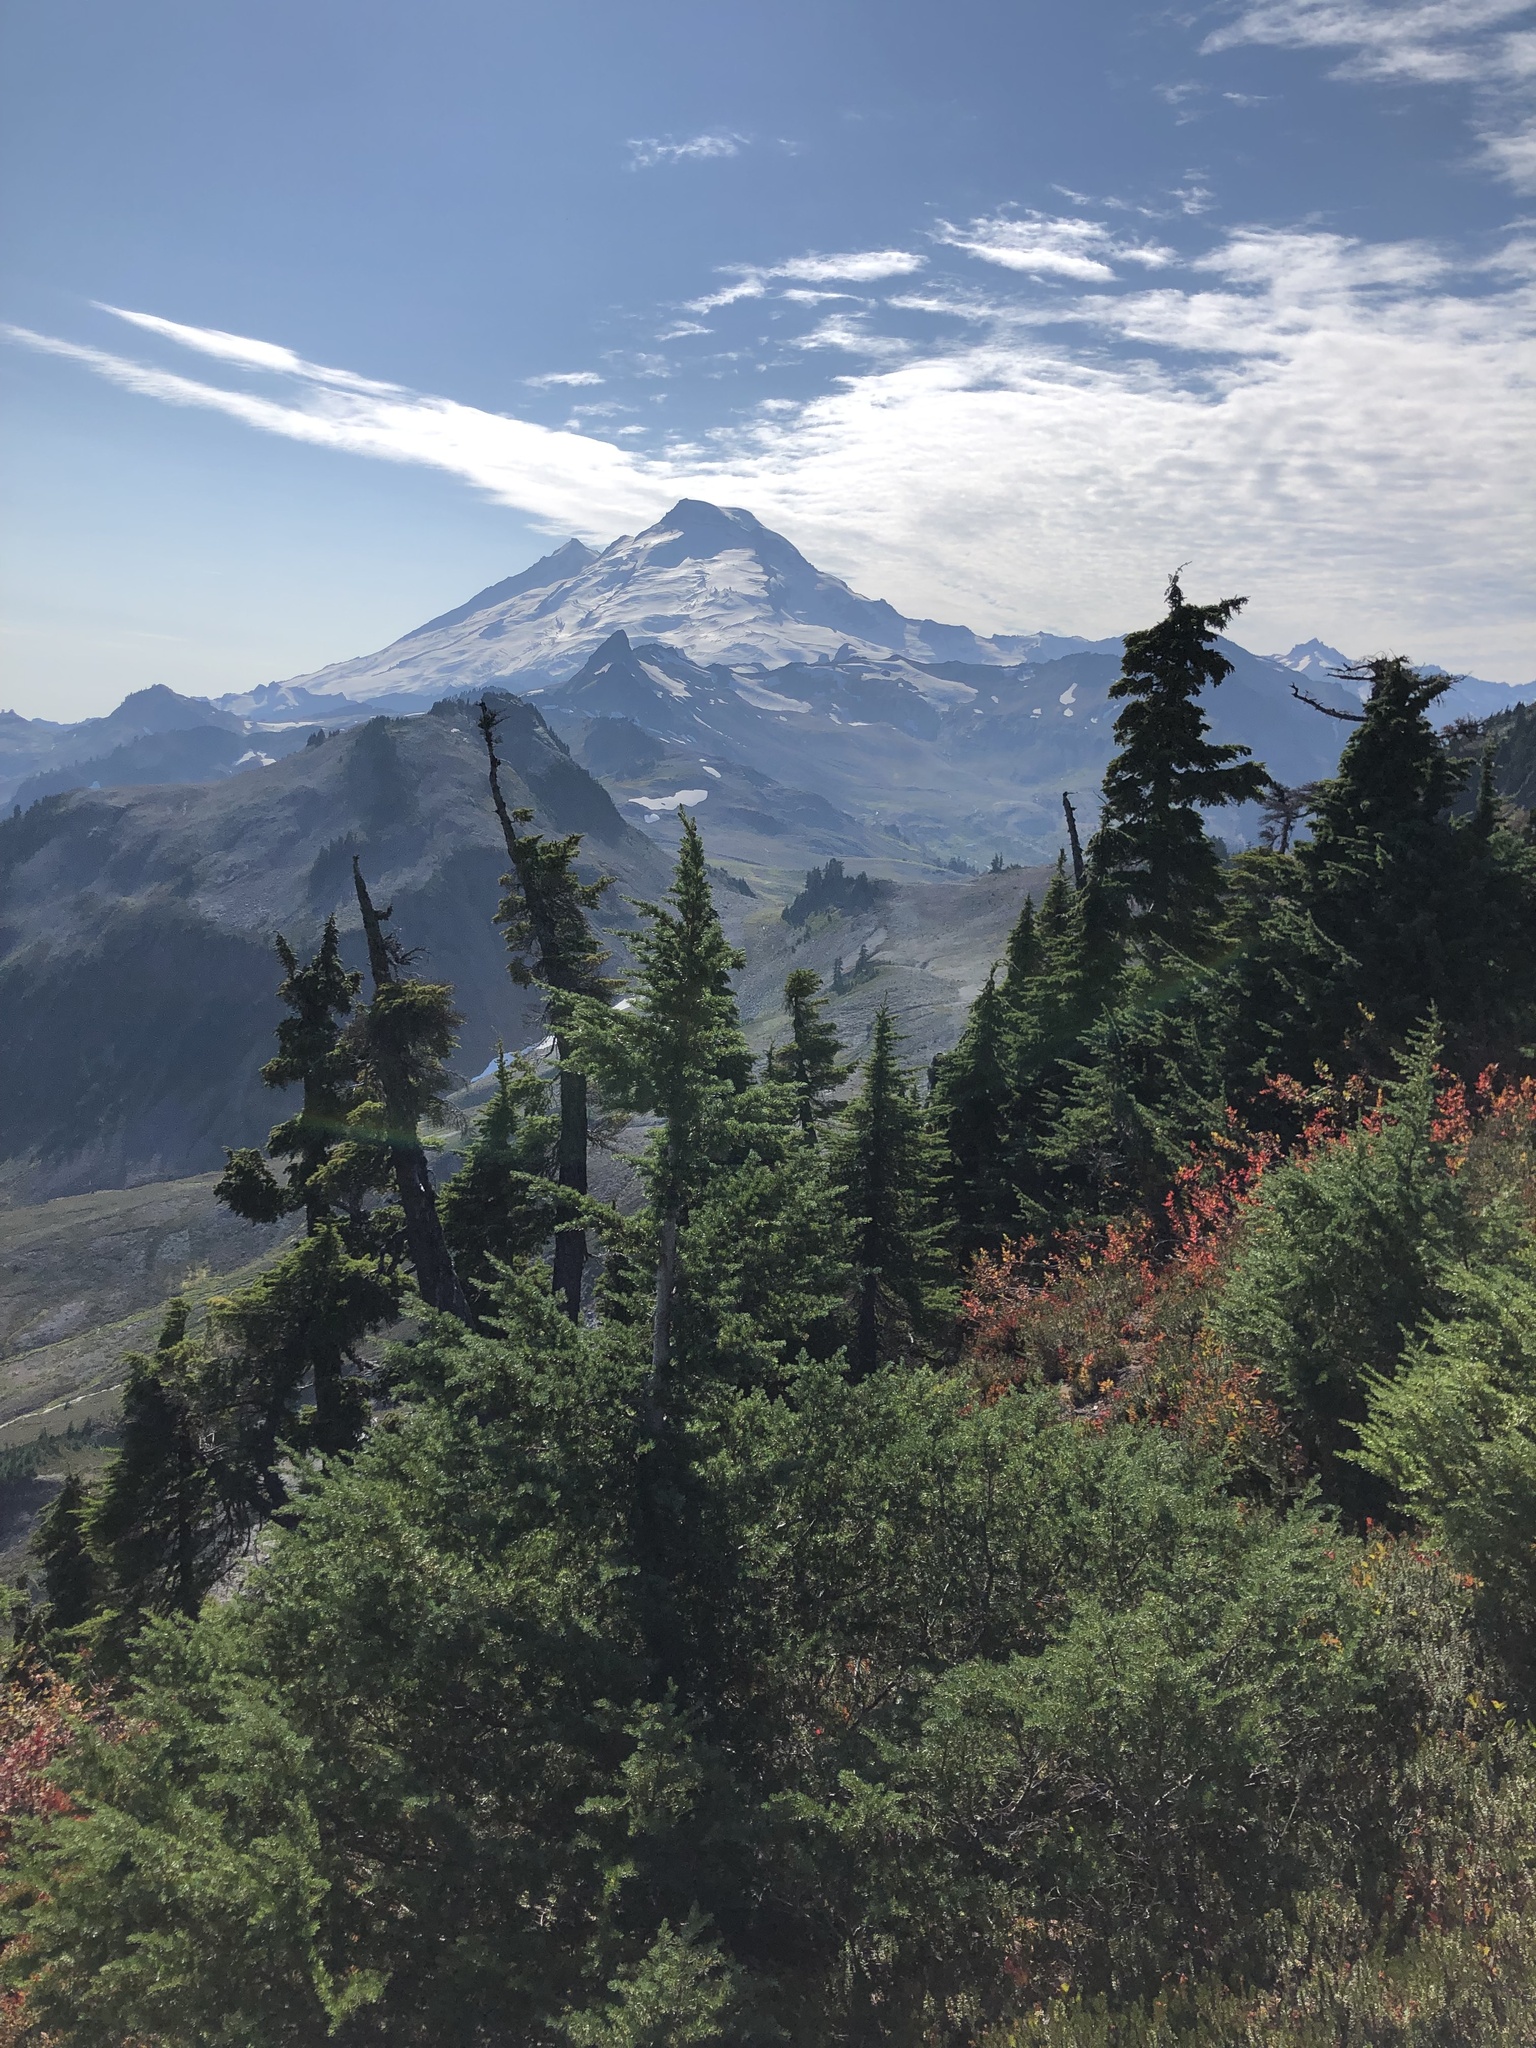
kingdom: Plantae
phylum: Tracheophyta
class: Pinopsida
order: Pinales
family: Pinaceae
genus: Tsuga
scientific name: Tsuga mertensiana
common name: Mountain hemlock
